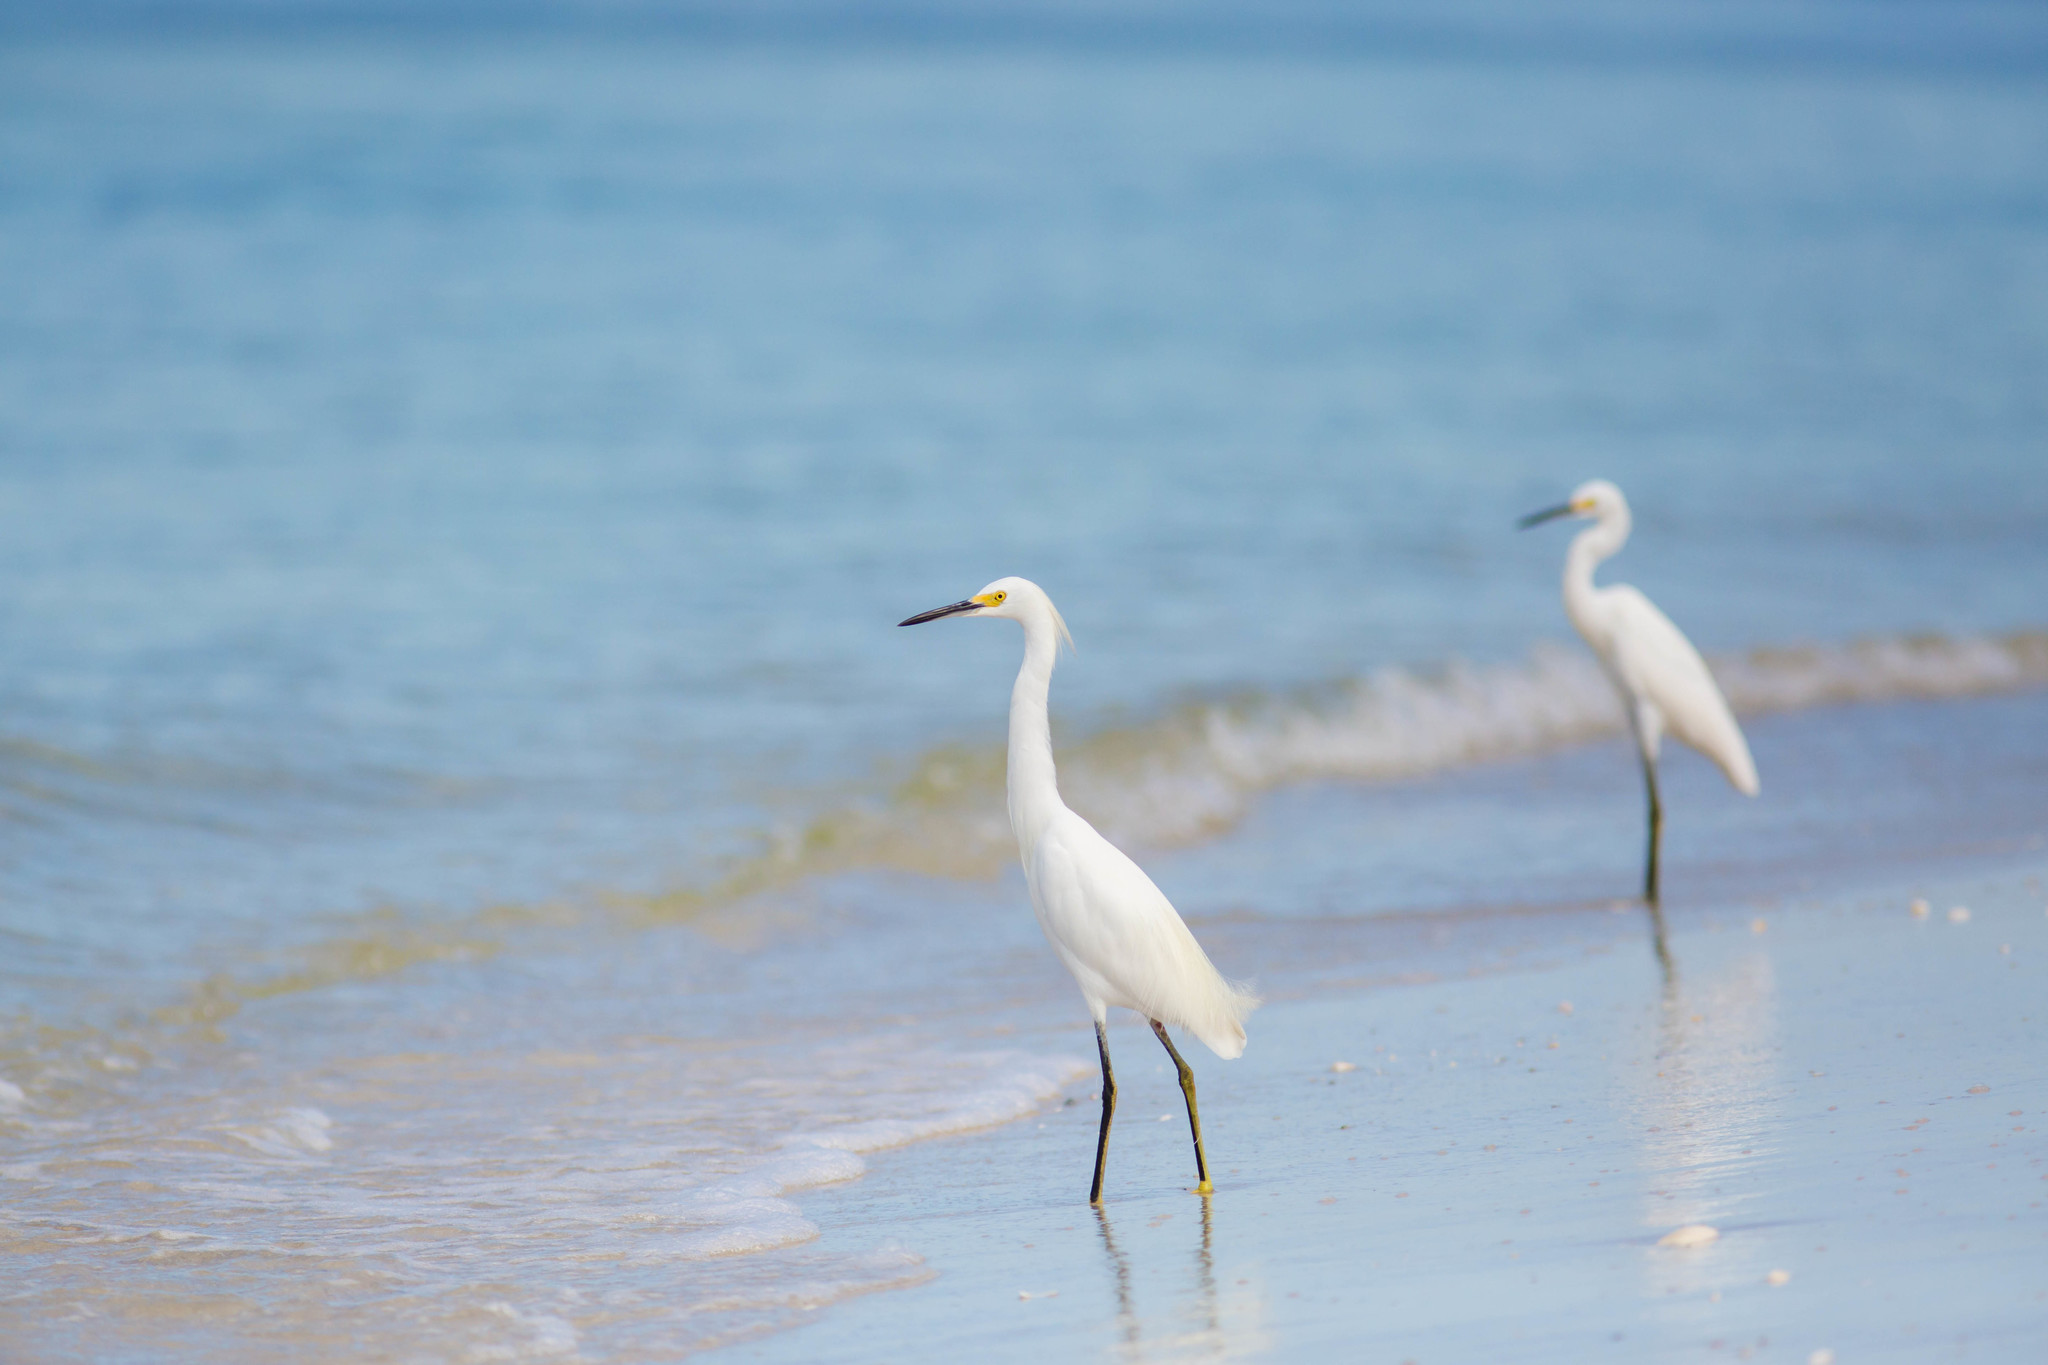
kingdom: Animalia
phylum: Chordata
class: Aves
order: Pelecaniformes
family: Ardeidae
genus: Egretta
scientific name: Egretta thula
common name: Snowy egret
